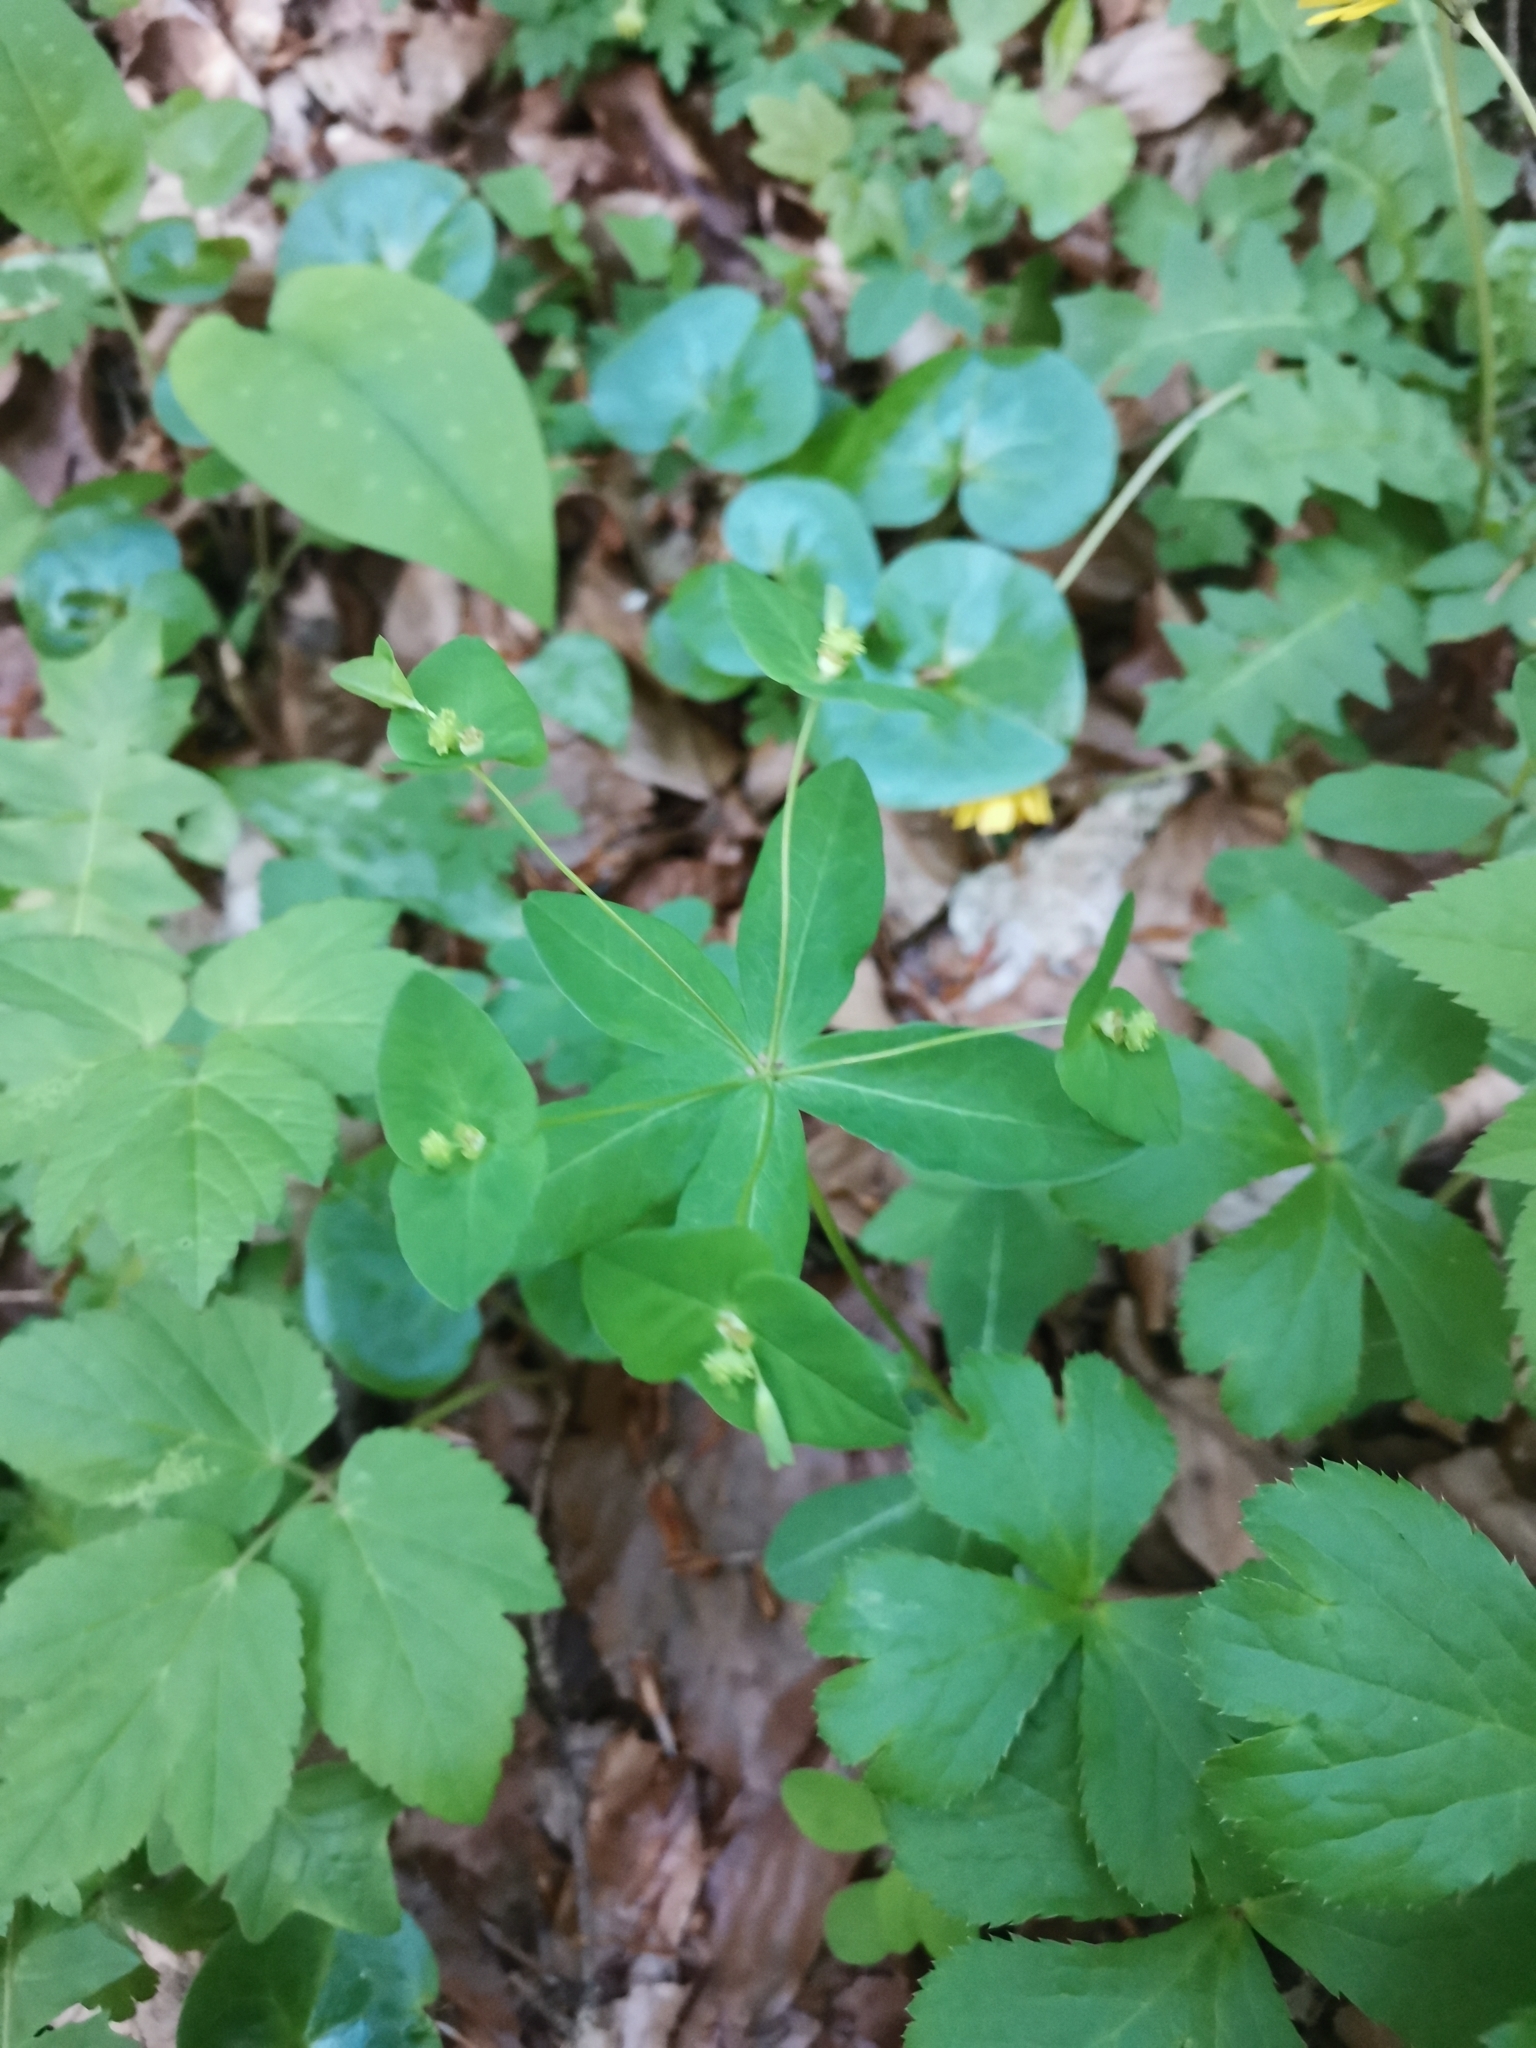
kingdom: Plantae
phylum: Tracheophyta
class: Magnoliopsida
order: Malpighiales
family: Euphorbiaceae
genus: Euphorbia
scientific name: Euphorbia dulcis
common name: Sweet spurge
